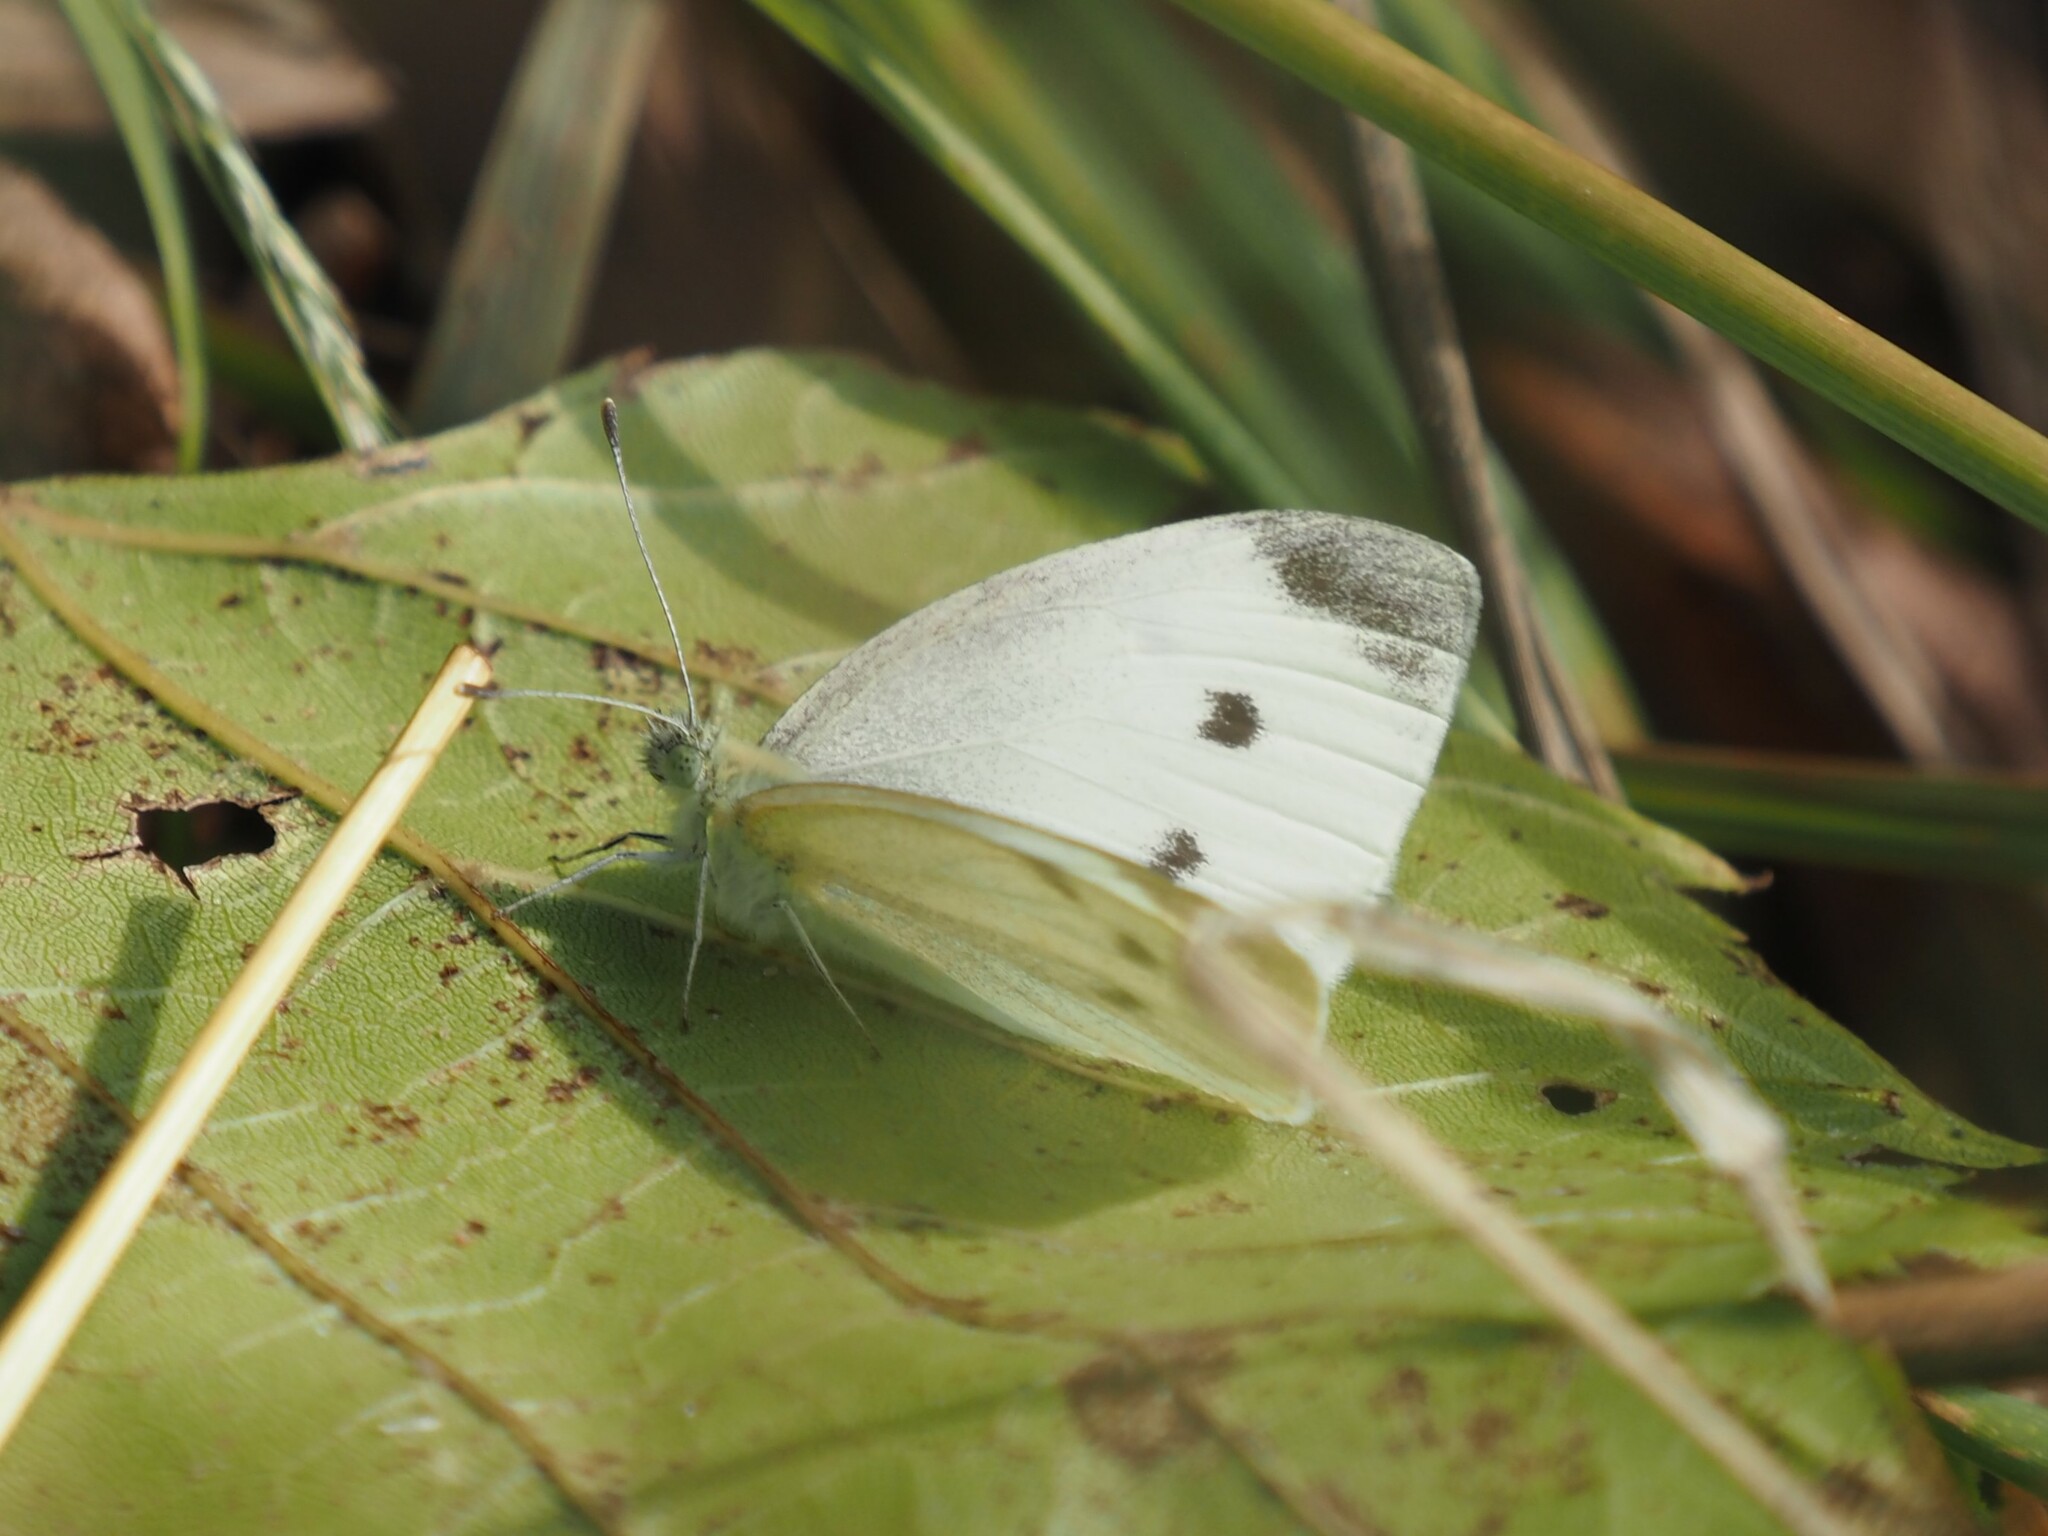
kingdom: Animalia
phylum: Arthropoda
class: Insecta
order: Lepidoptera
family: Pieridae
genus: Pieris
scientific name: Pieris rapae
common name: Small white
